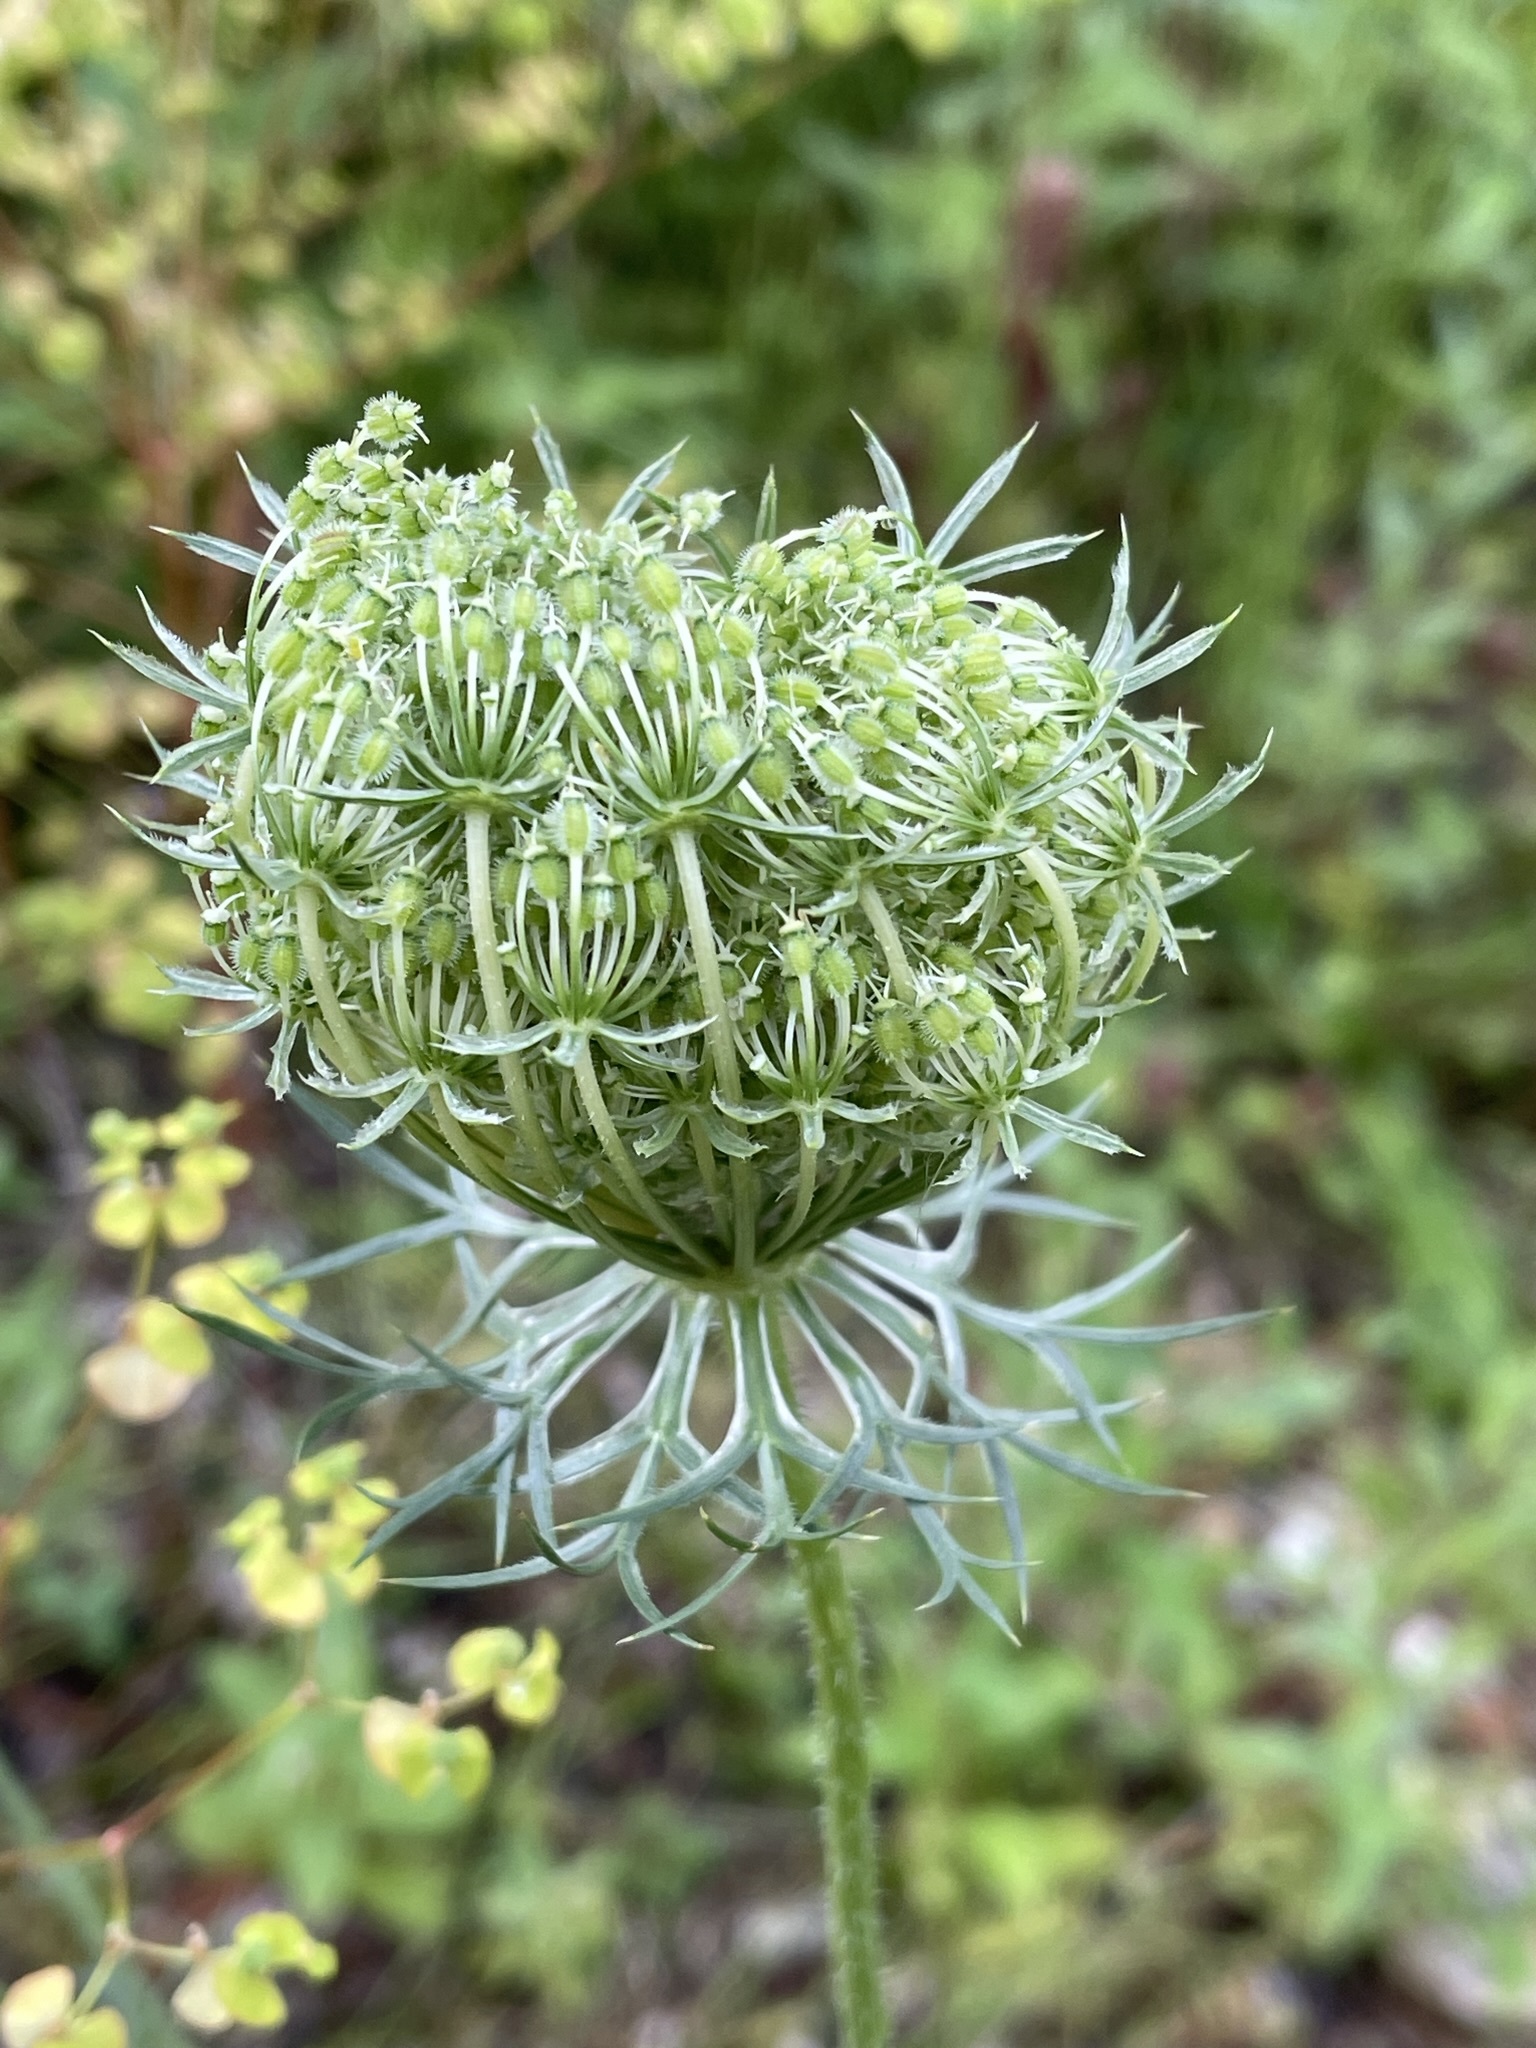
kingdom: Plantae
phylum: Tracheophyta
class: Magnoliopsida
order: Apiales
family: Apiaceae
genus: Daucus
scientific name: Daucus carota
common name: Wild carrot
